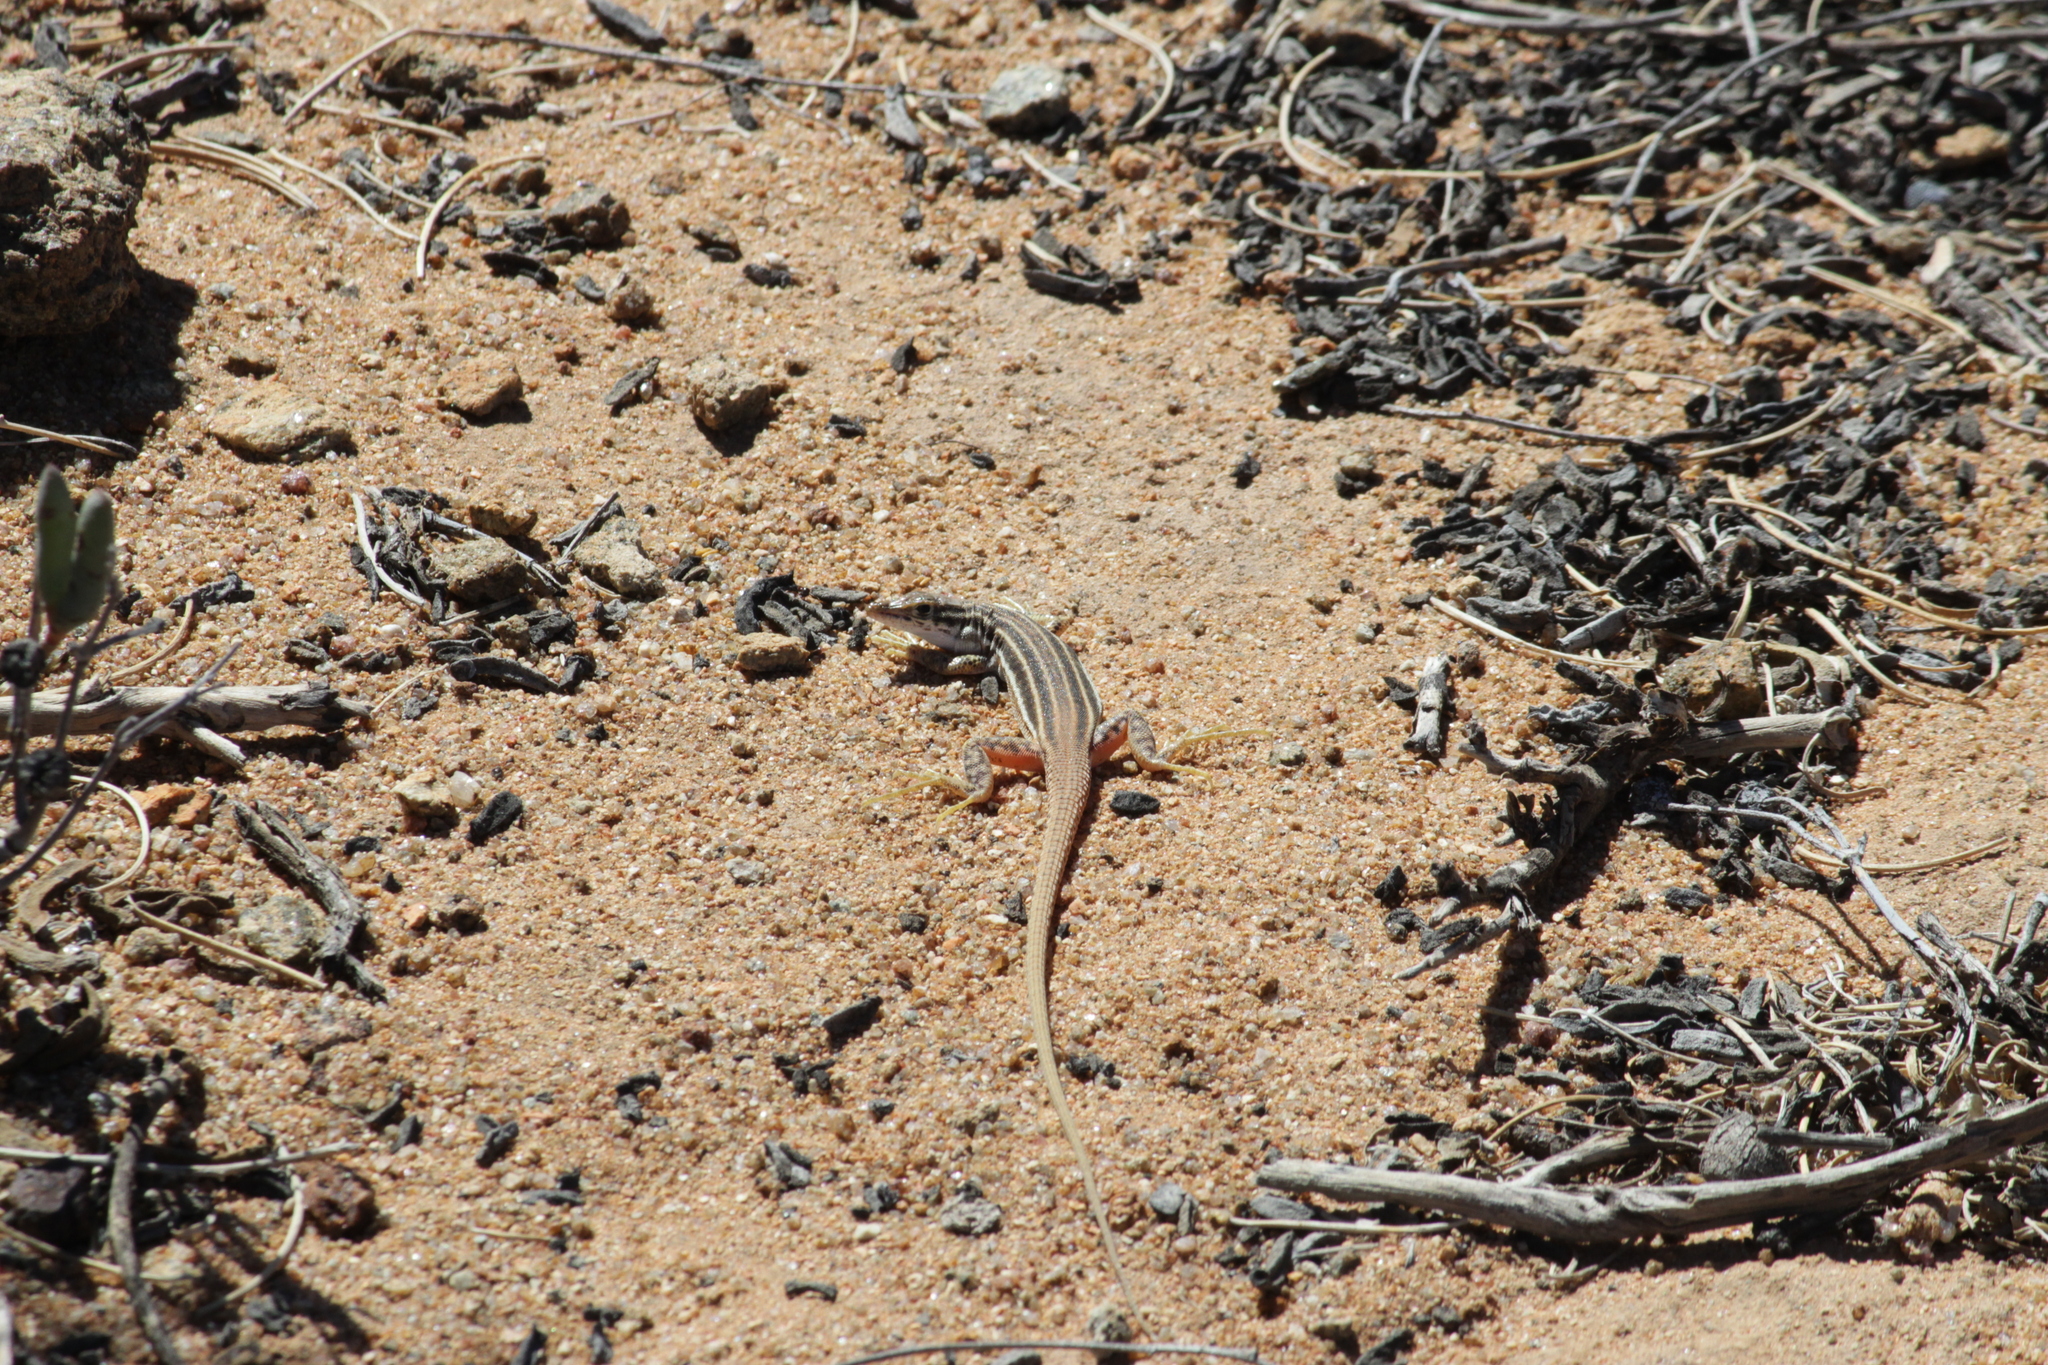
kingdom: Animalia
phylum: Chordata
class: Squamata
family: Lacertidae
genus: Pedioplanis
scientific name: Pedioplanis namaquensis
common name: Namaqua sand lizard
